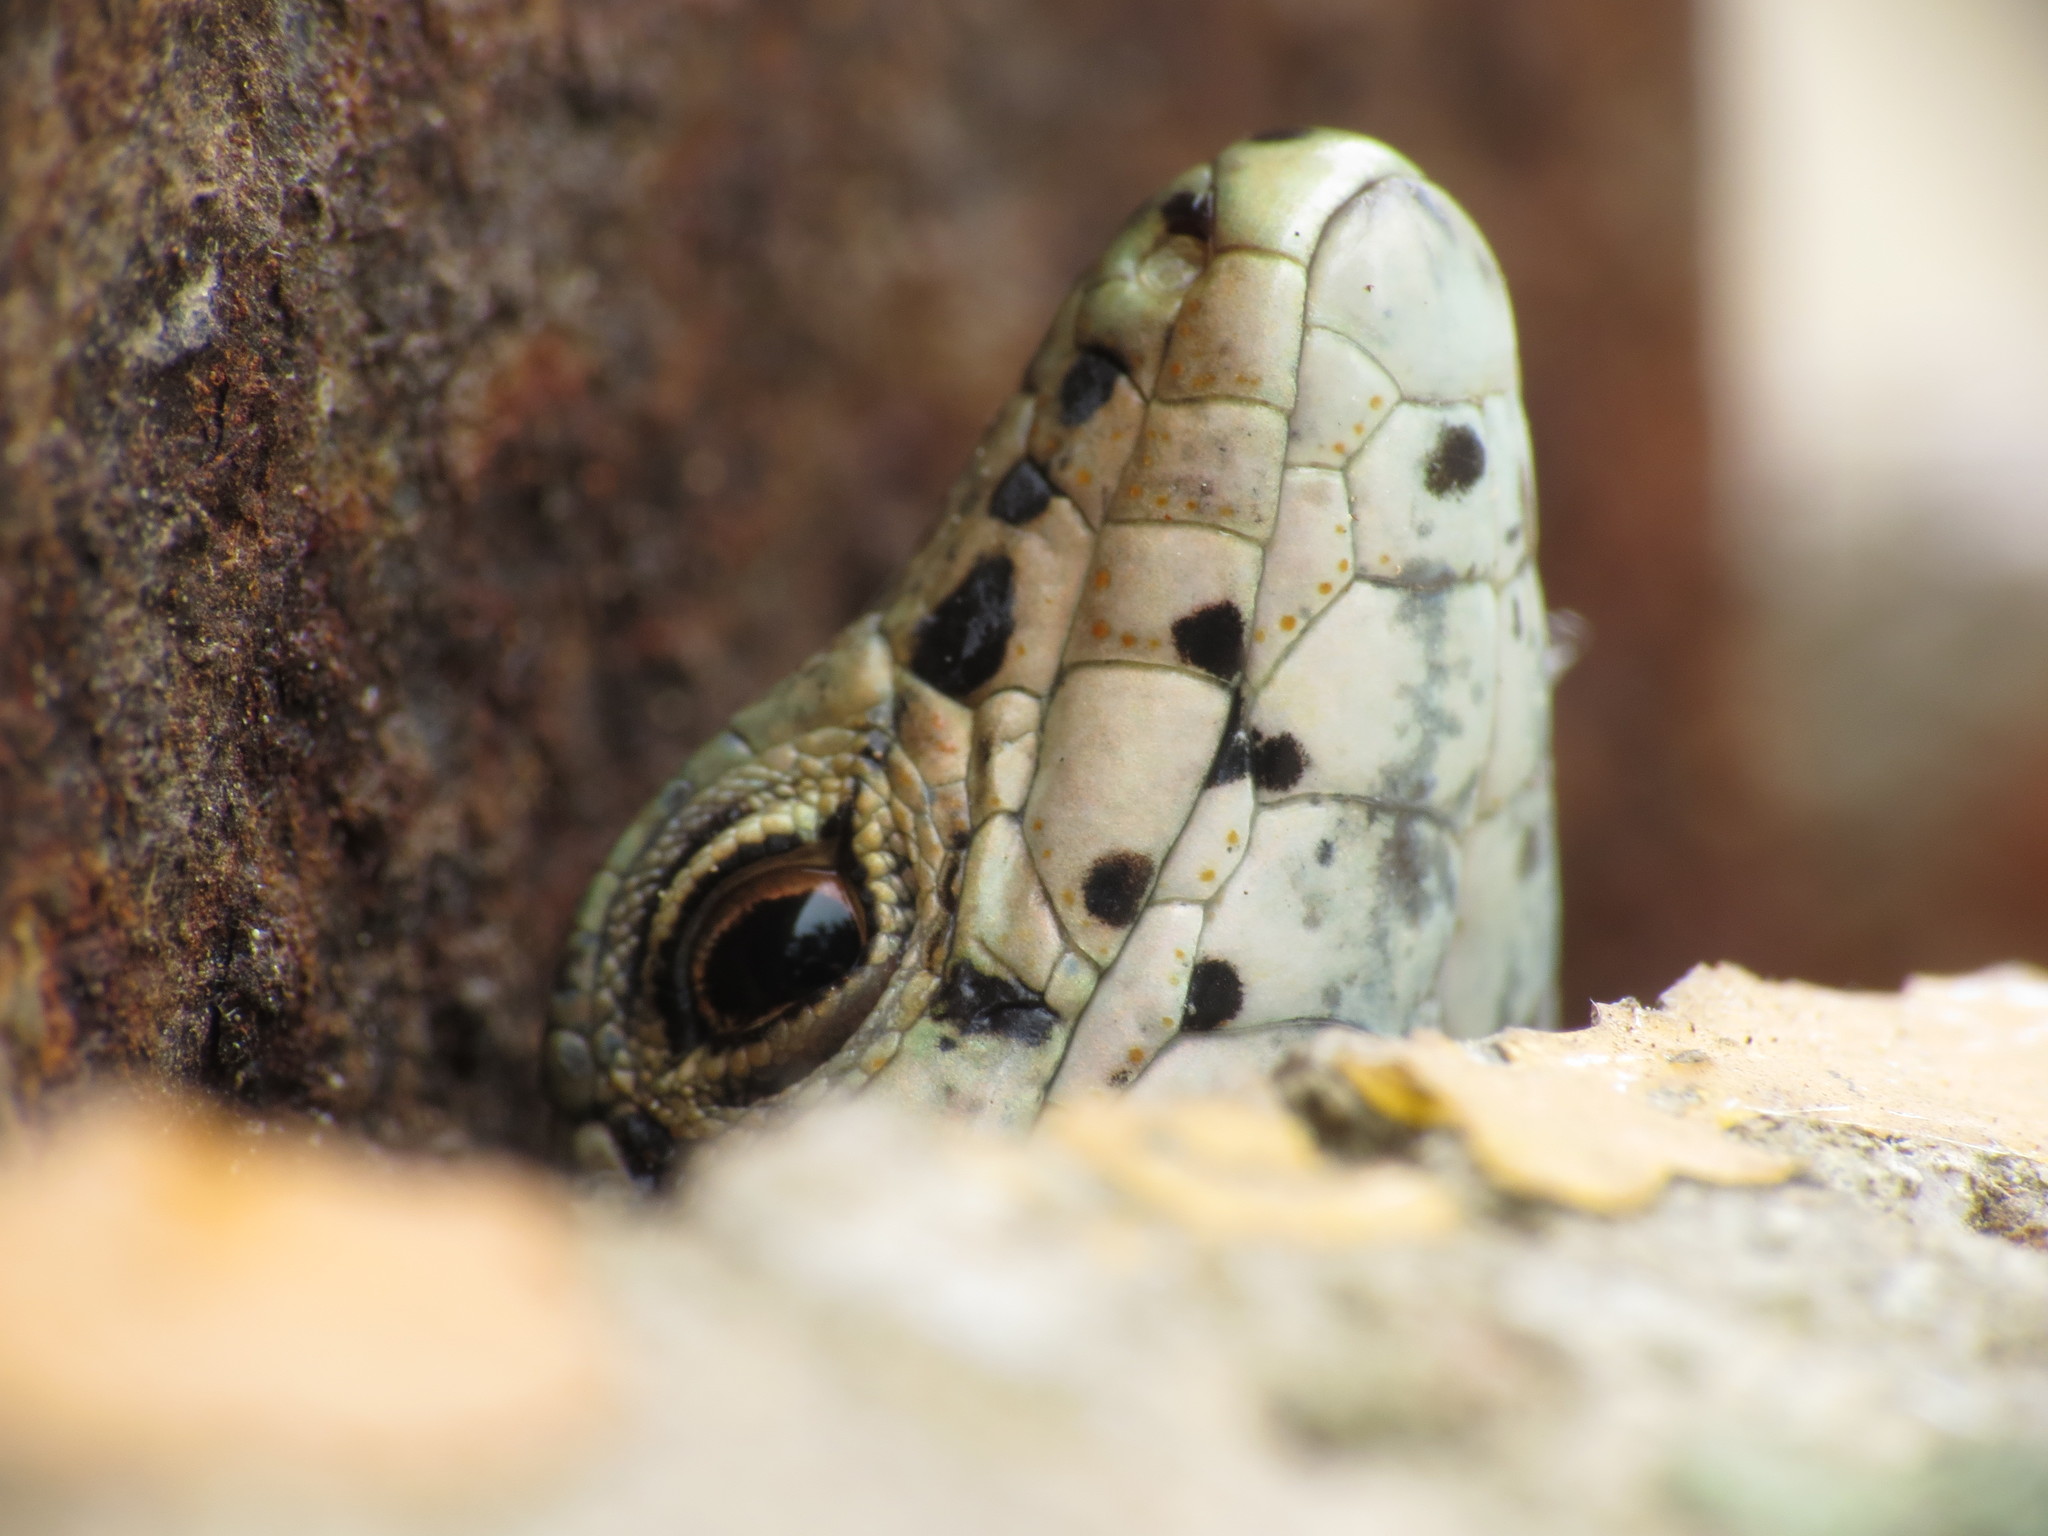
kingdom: Animalia
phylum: Chordata
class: Squamata
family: Lacertidae
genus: Podarcis
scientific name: Podarcis liolepis
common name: Catalonian wall lizard
